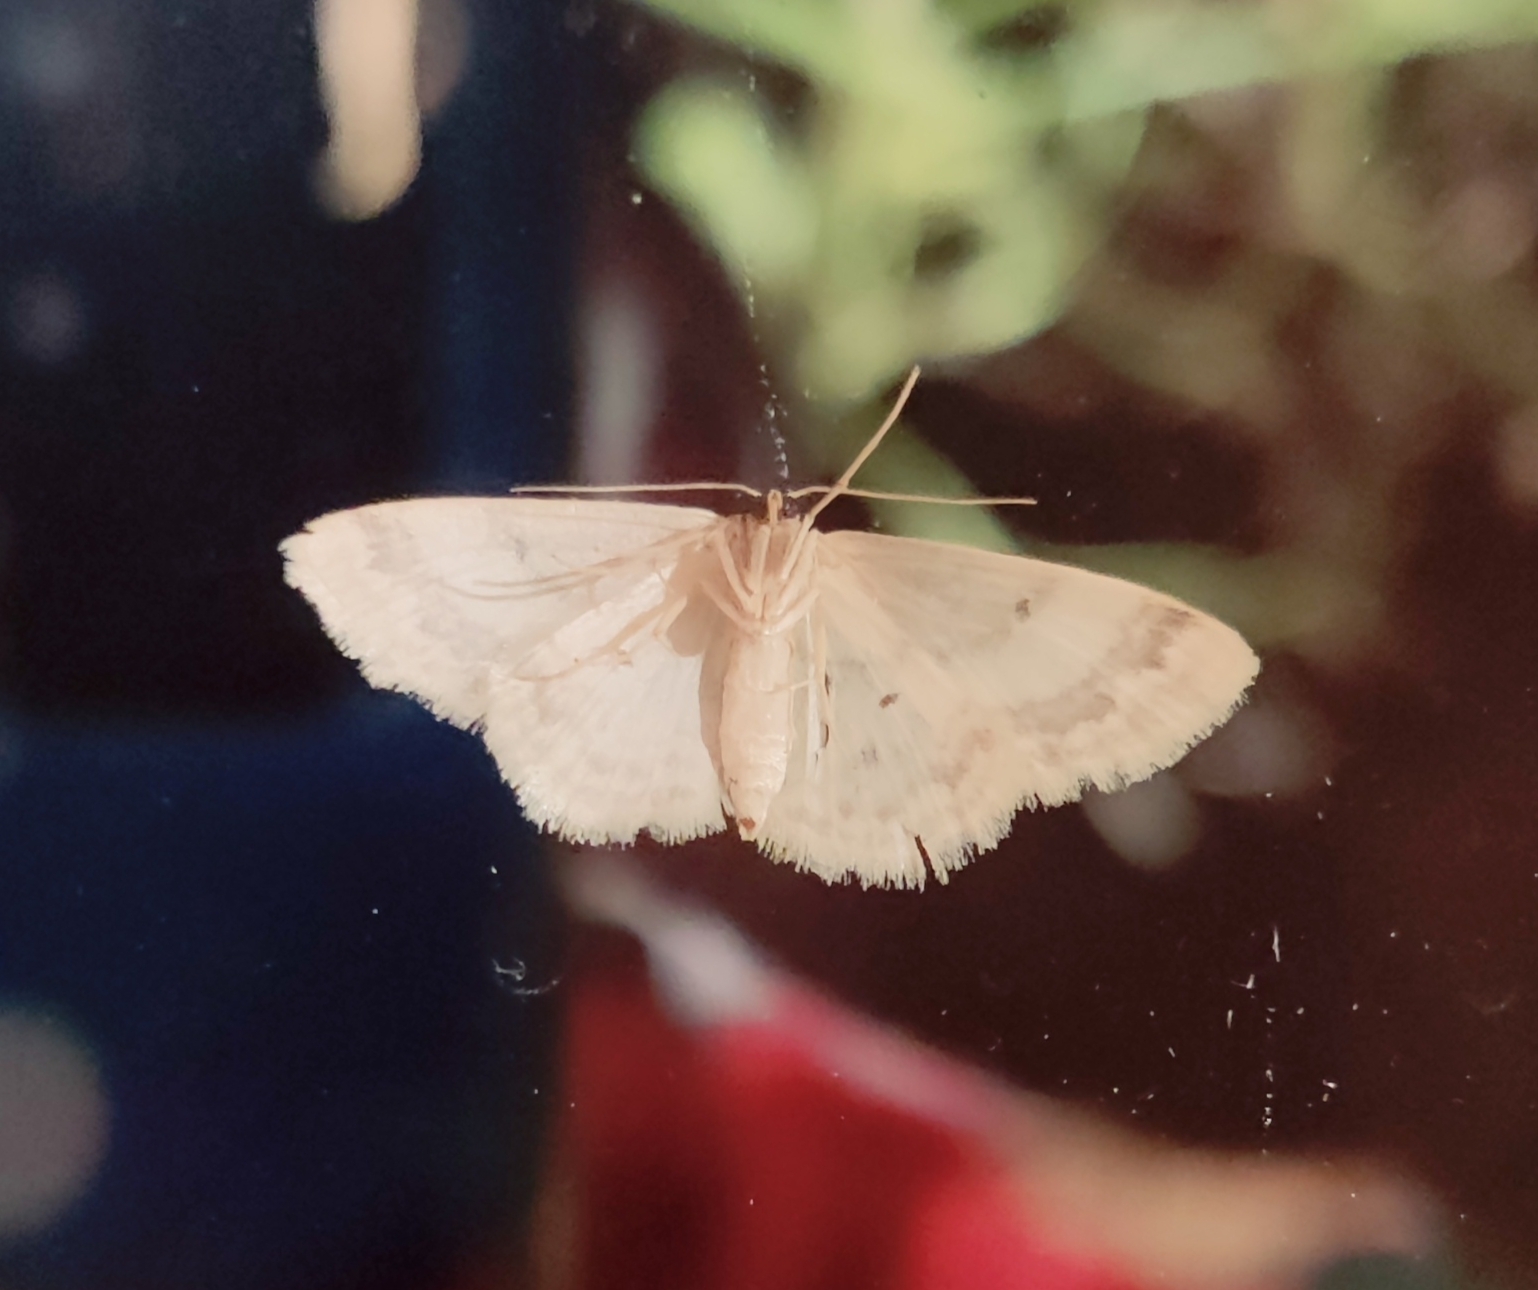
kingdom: Animalia
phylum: Arthropoda
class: Insecta
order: Lepidoptera
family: Geometridae
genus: Idaea
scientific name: Idaea biselata
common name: Small fan-footed wave
